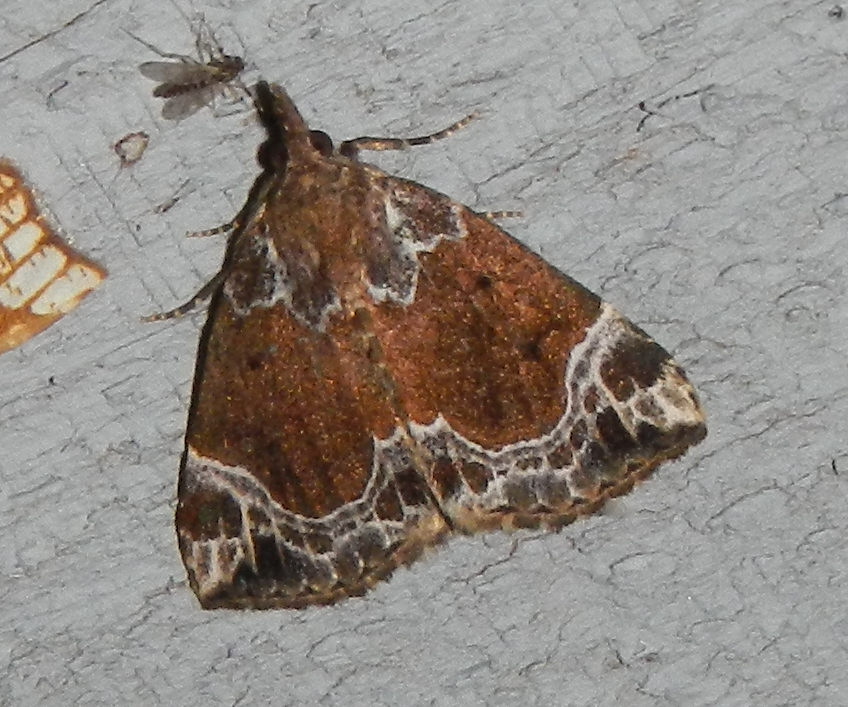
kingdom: Animalia
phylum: Arthropoda
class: Insecta
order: Lepidoptera
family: Erebidae
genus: Hypena
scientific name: Hypena abalienalis
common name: White-lined snout
